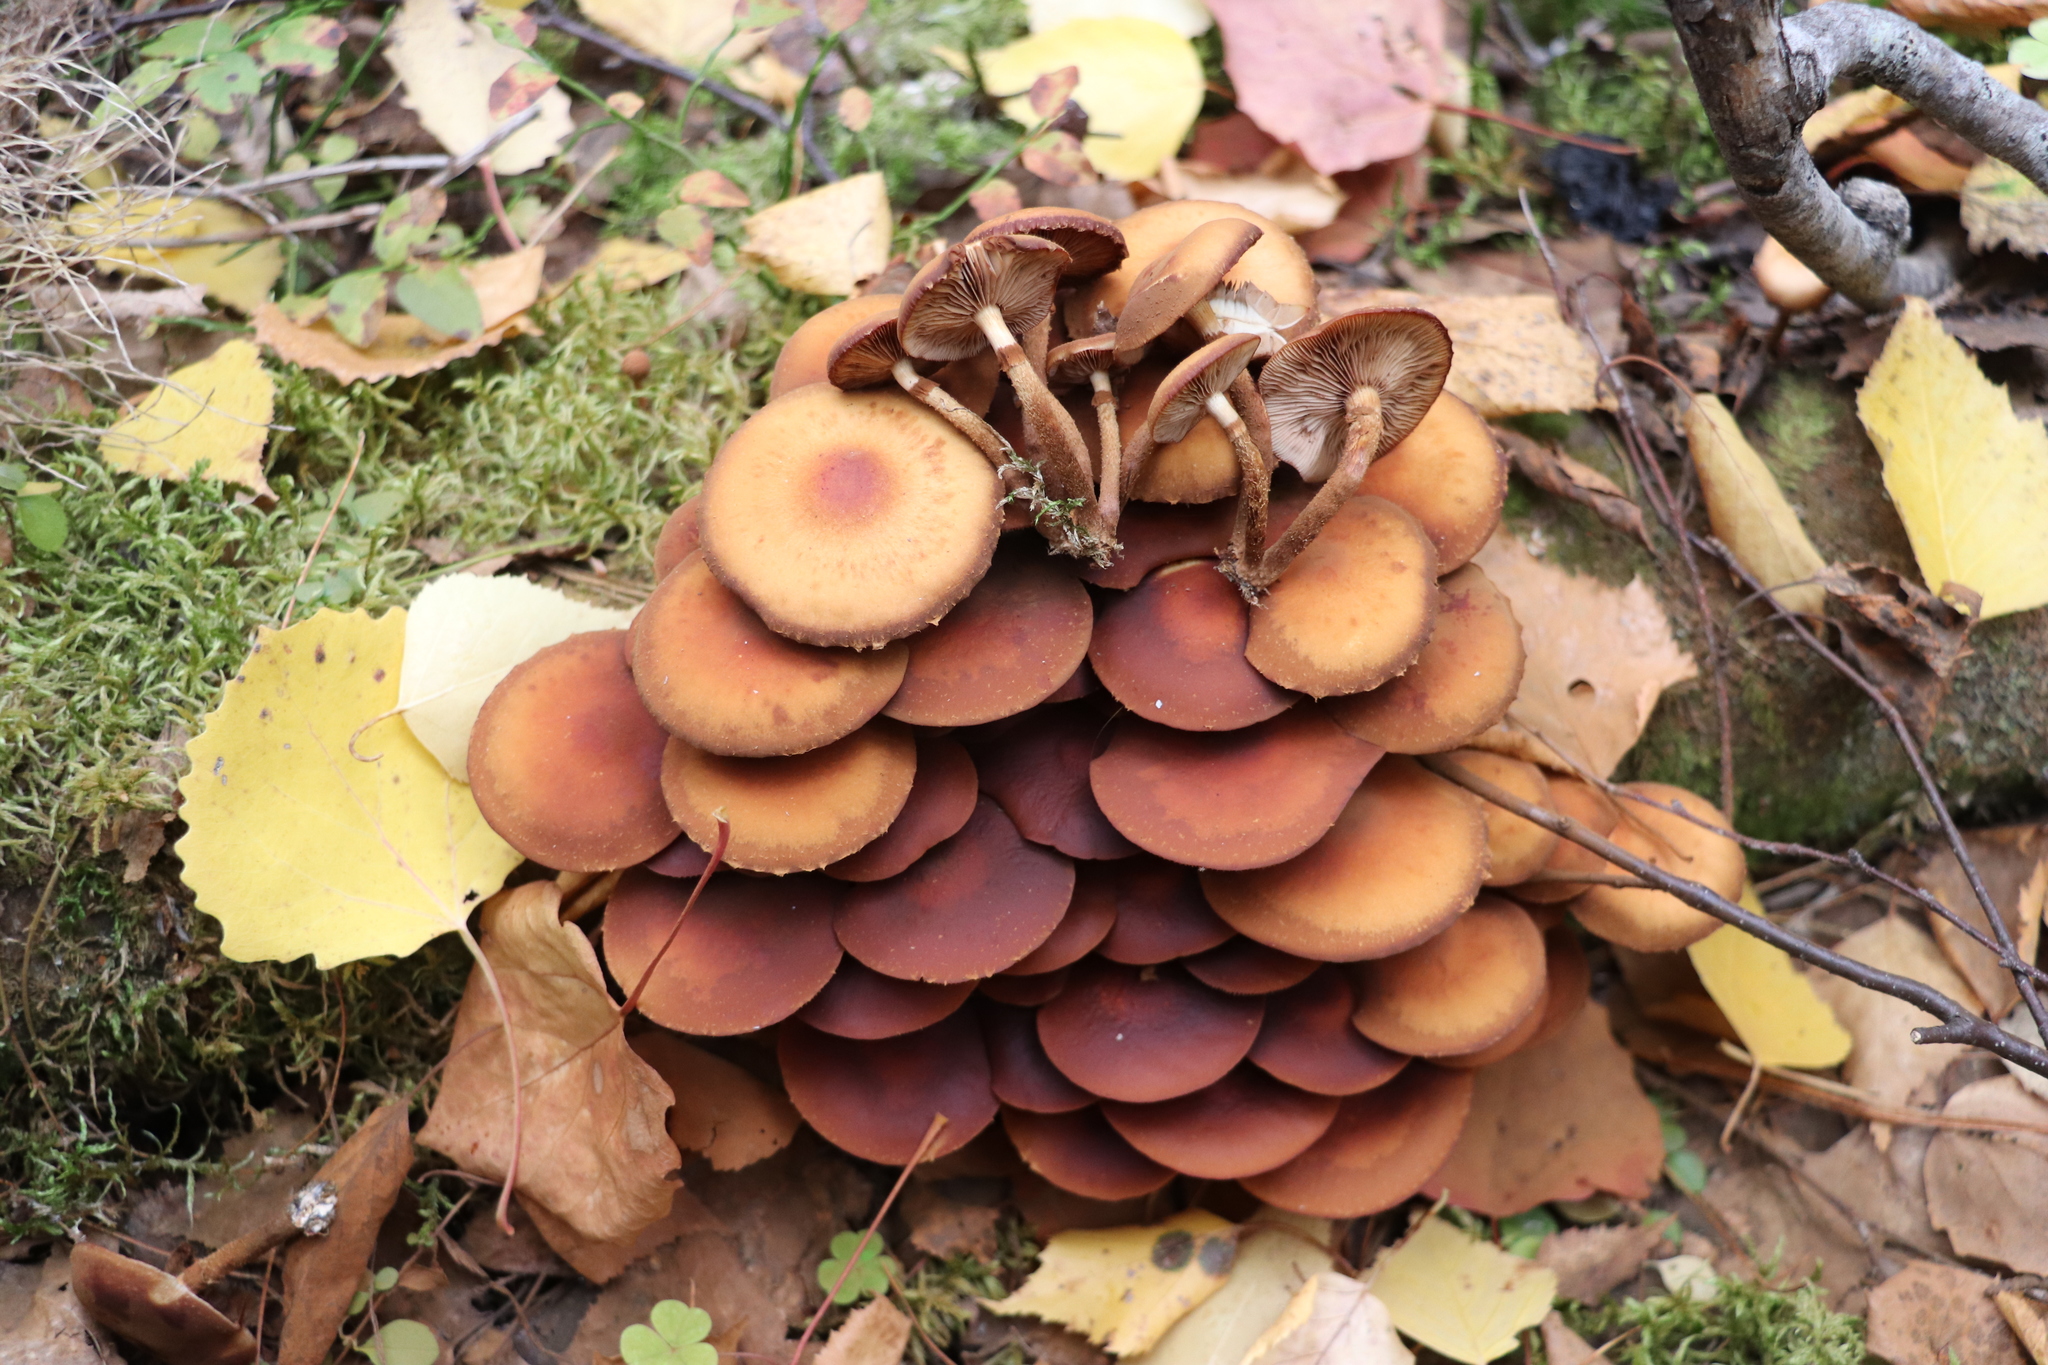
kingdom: Fungi
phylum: Basidiomycota
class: Agaricomycetes
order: Agaricales
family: Strophariaceae
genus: Kuehneromyces
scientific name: Kuehneromyces mutabilis
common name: Sheathed woodtuft
